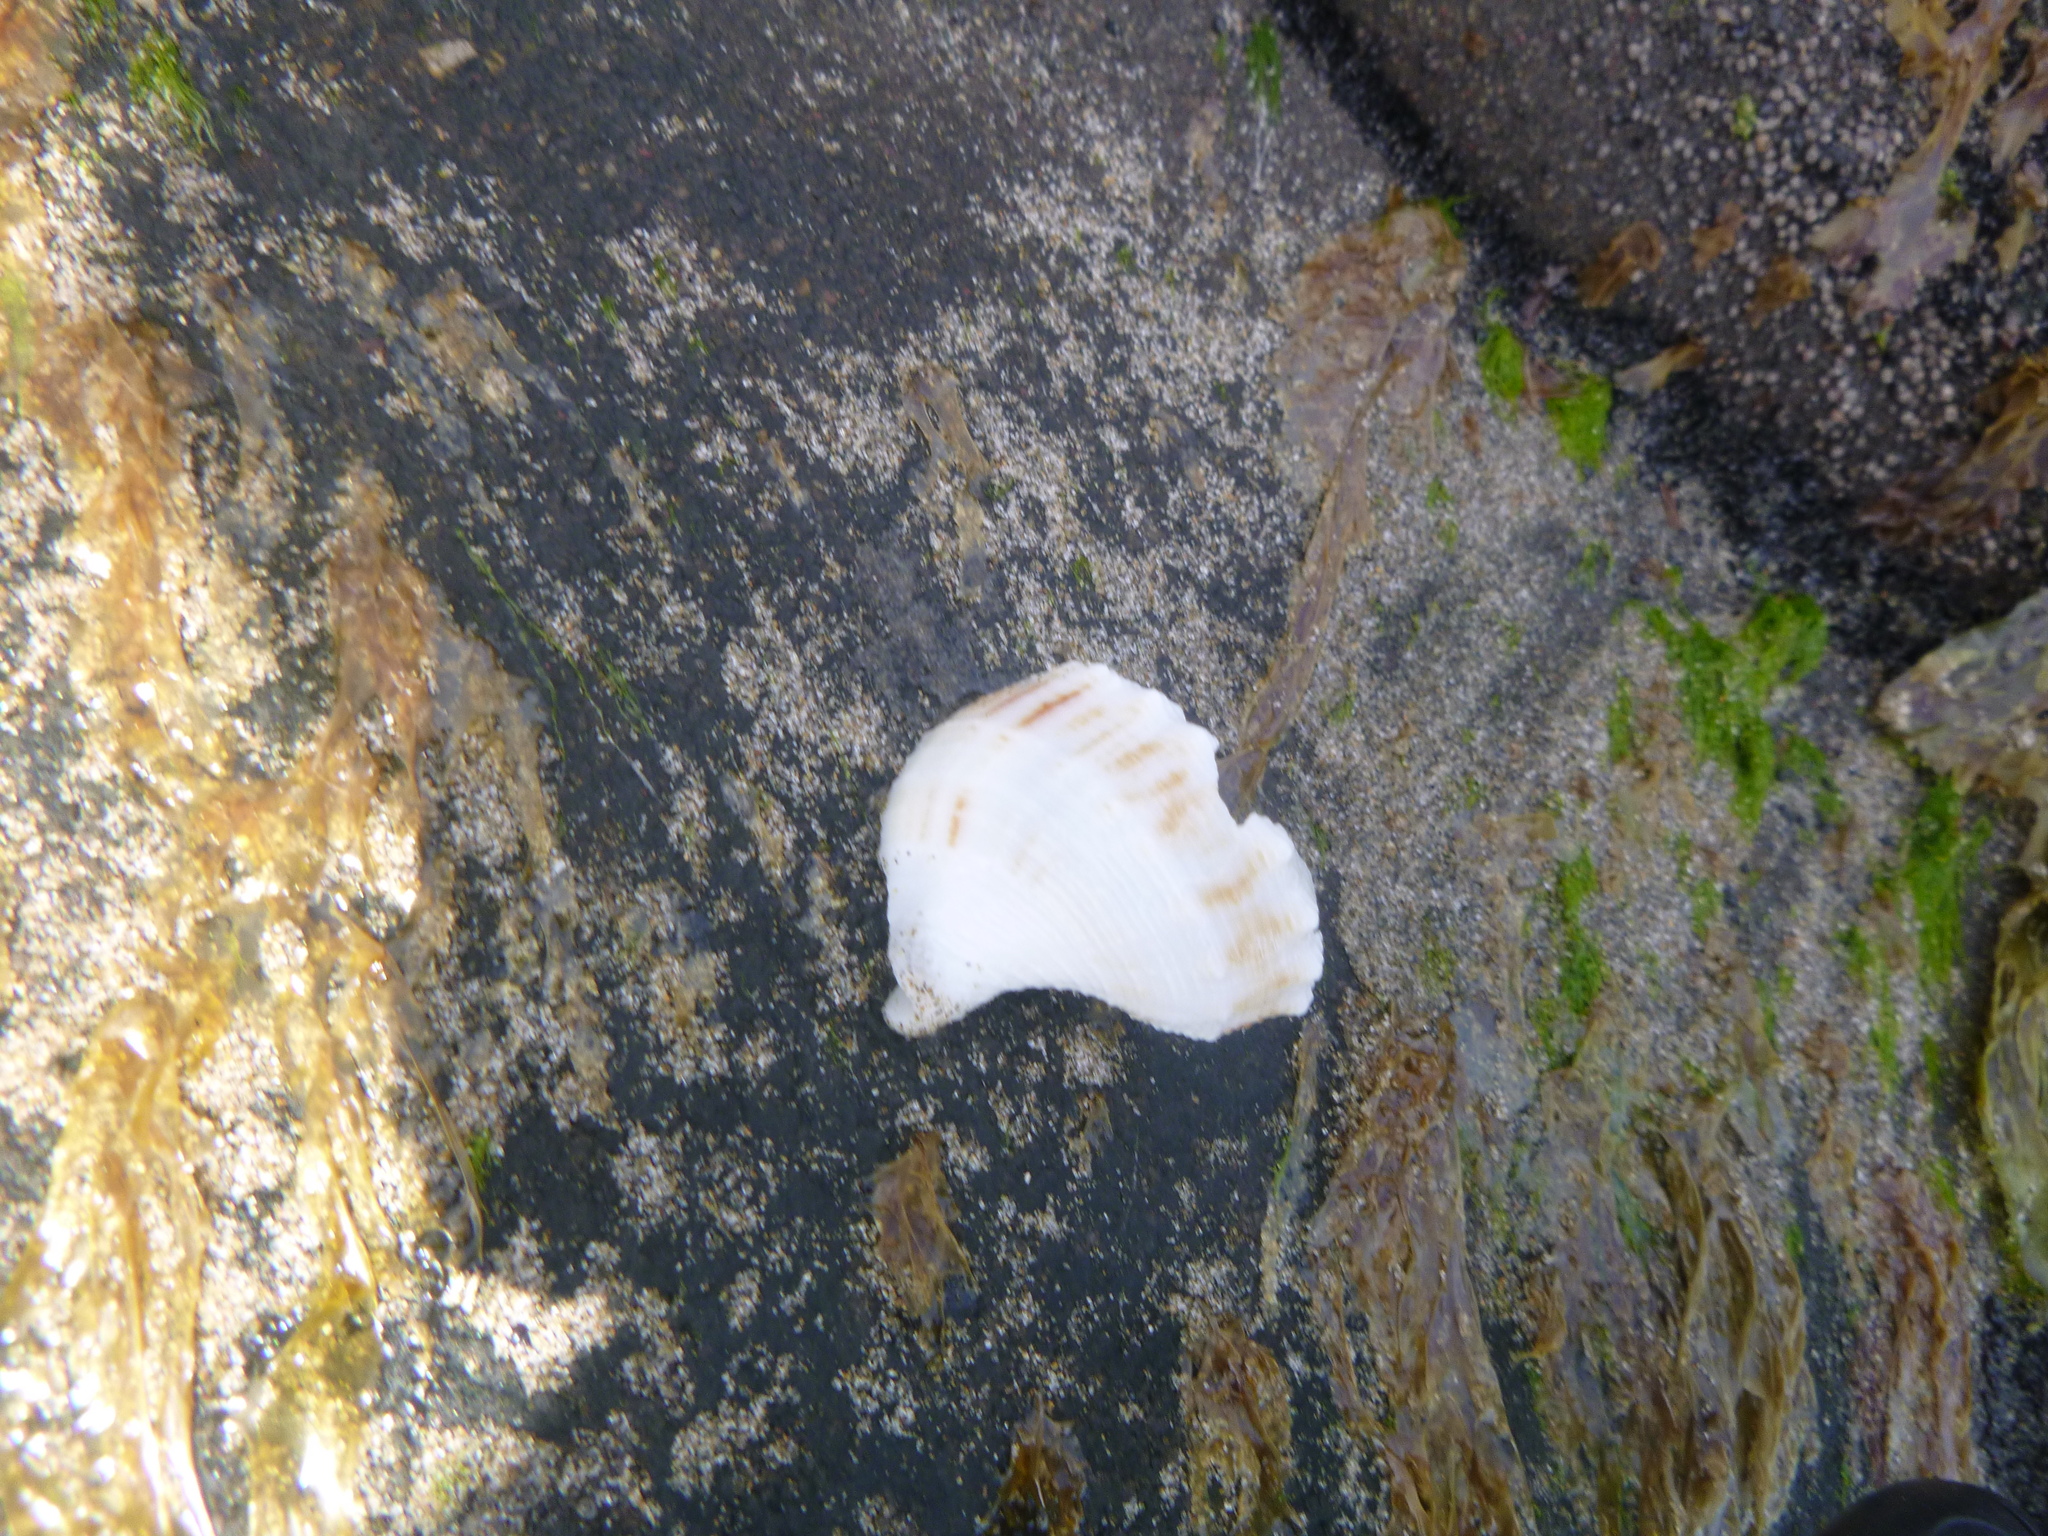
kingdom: Animalia
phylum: Mollusca
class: Gastropoda
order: Neogastropoda
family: Prosiphonidae
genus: Austrofusus
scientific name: Austrofusus glans
